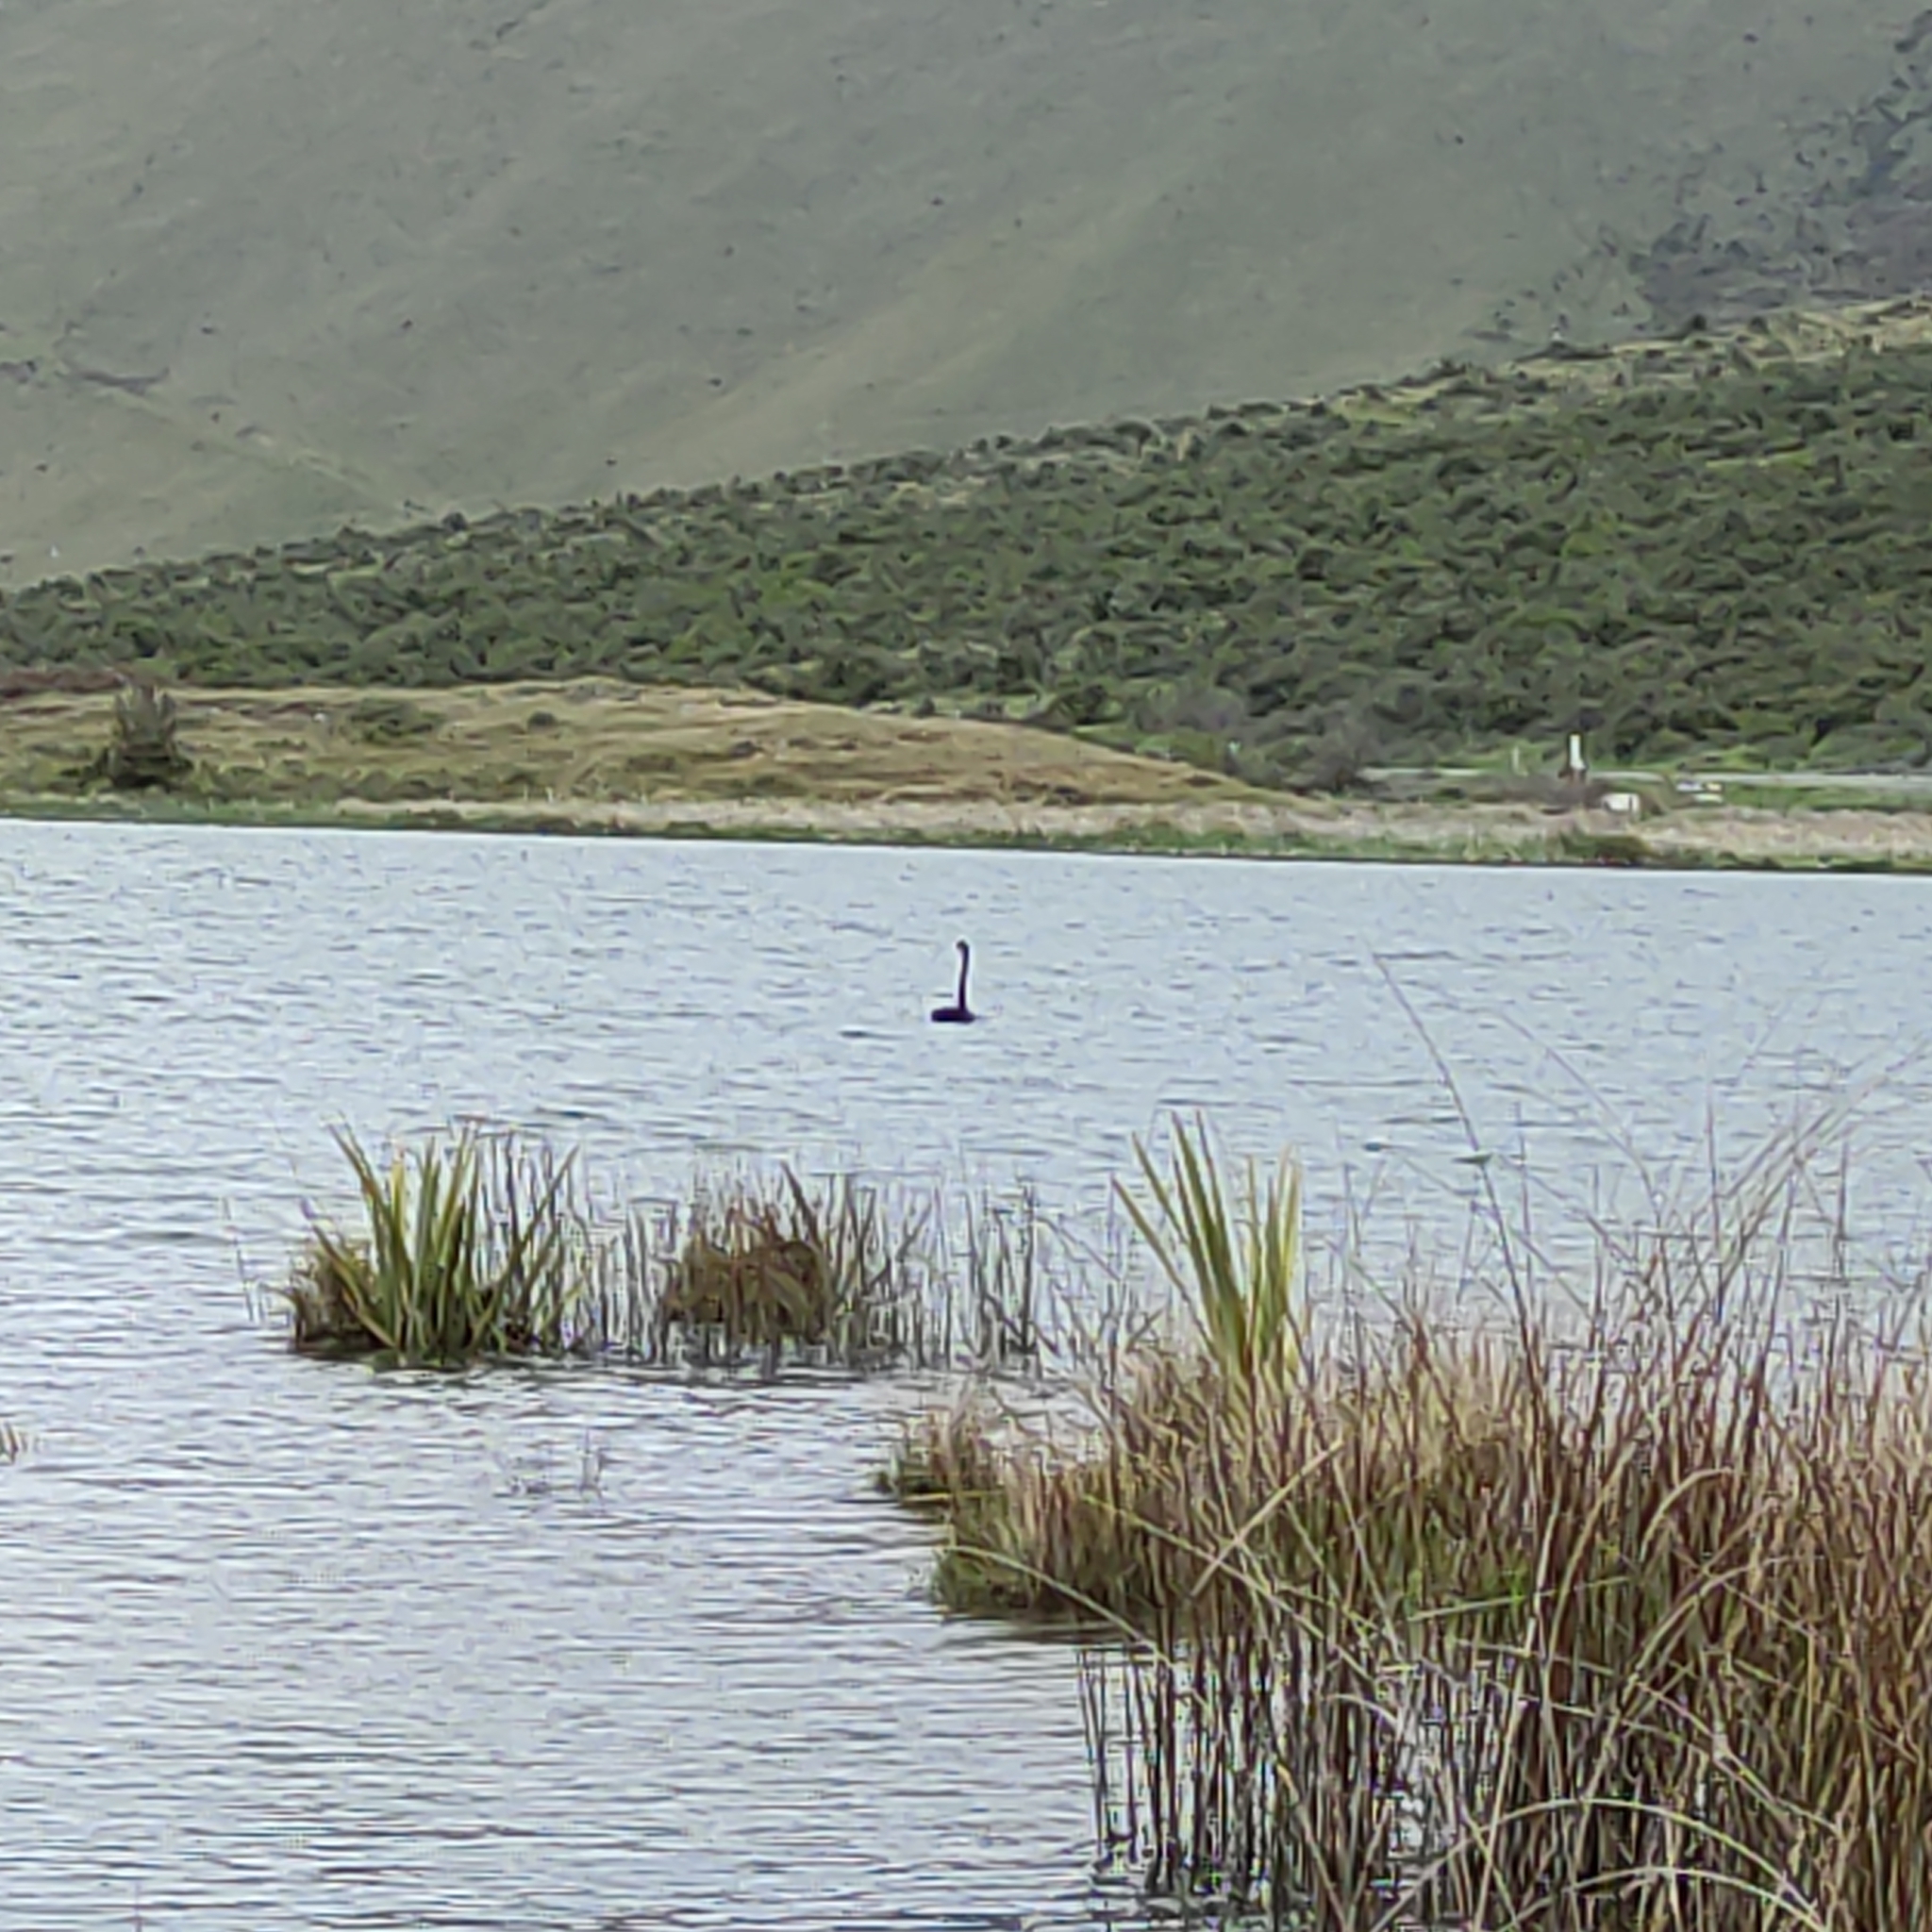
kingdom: Animalia
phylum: Chordata
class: Aves
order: Anseriformes
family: Anatidae
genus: Cygnus
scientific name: Cygnus atratus
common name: Black swan
